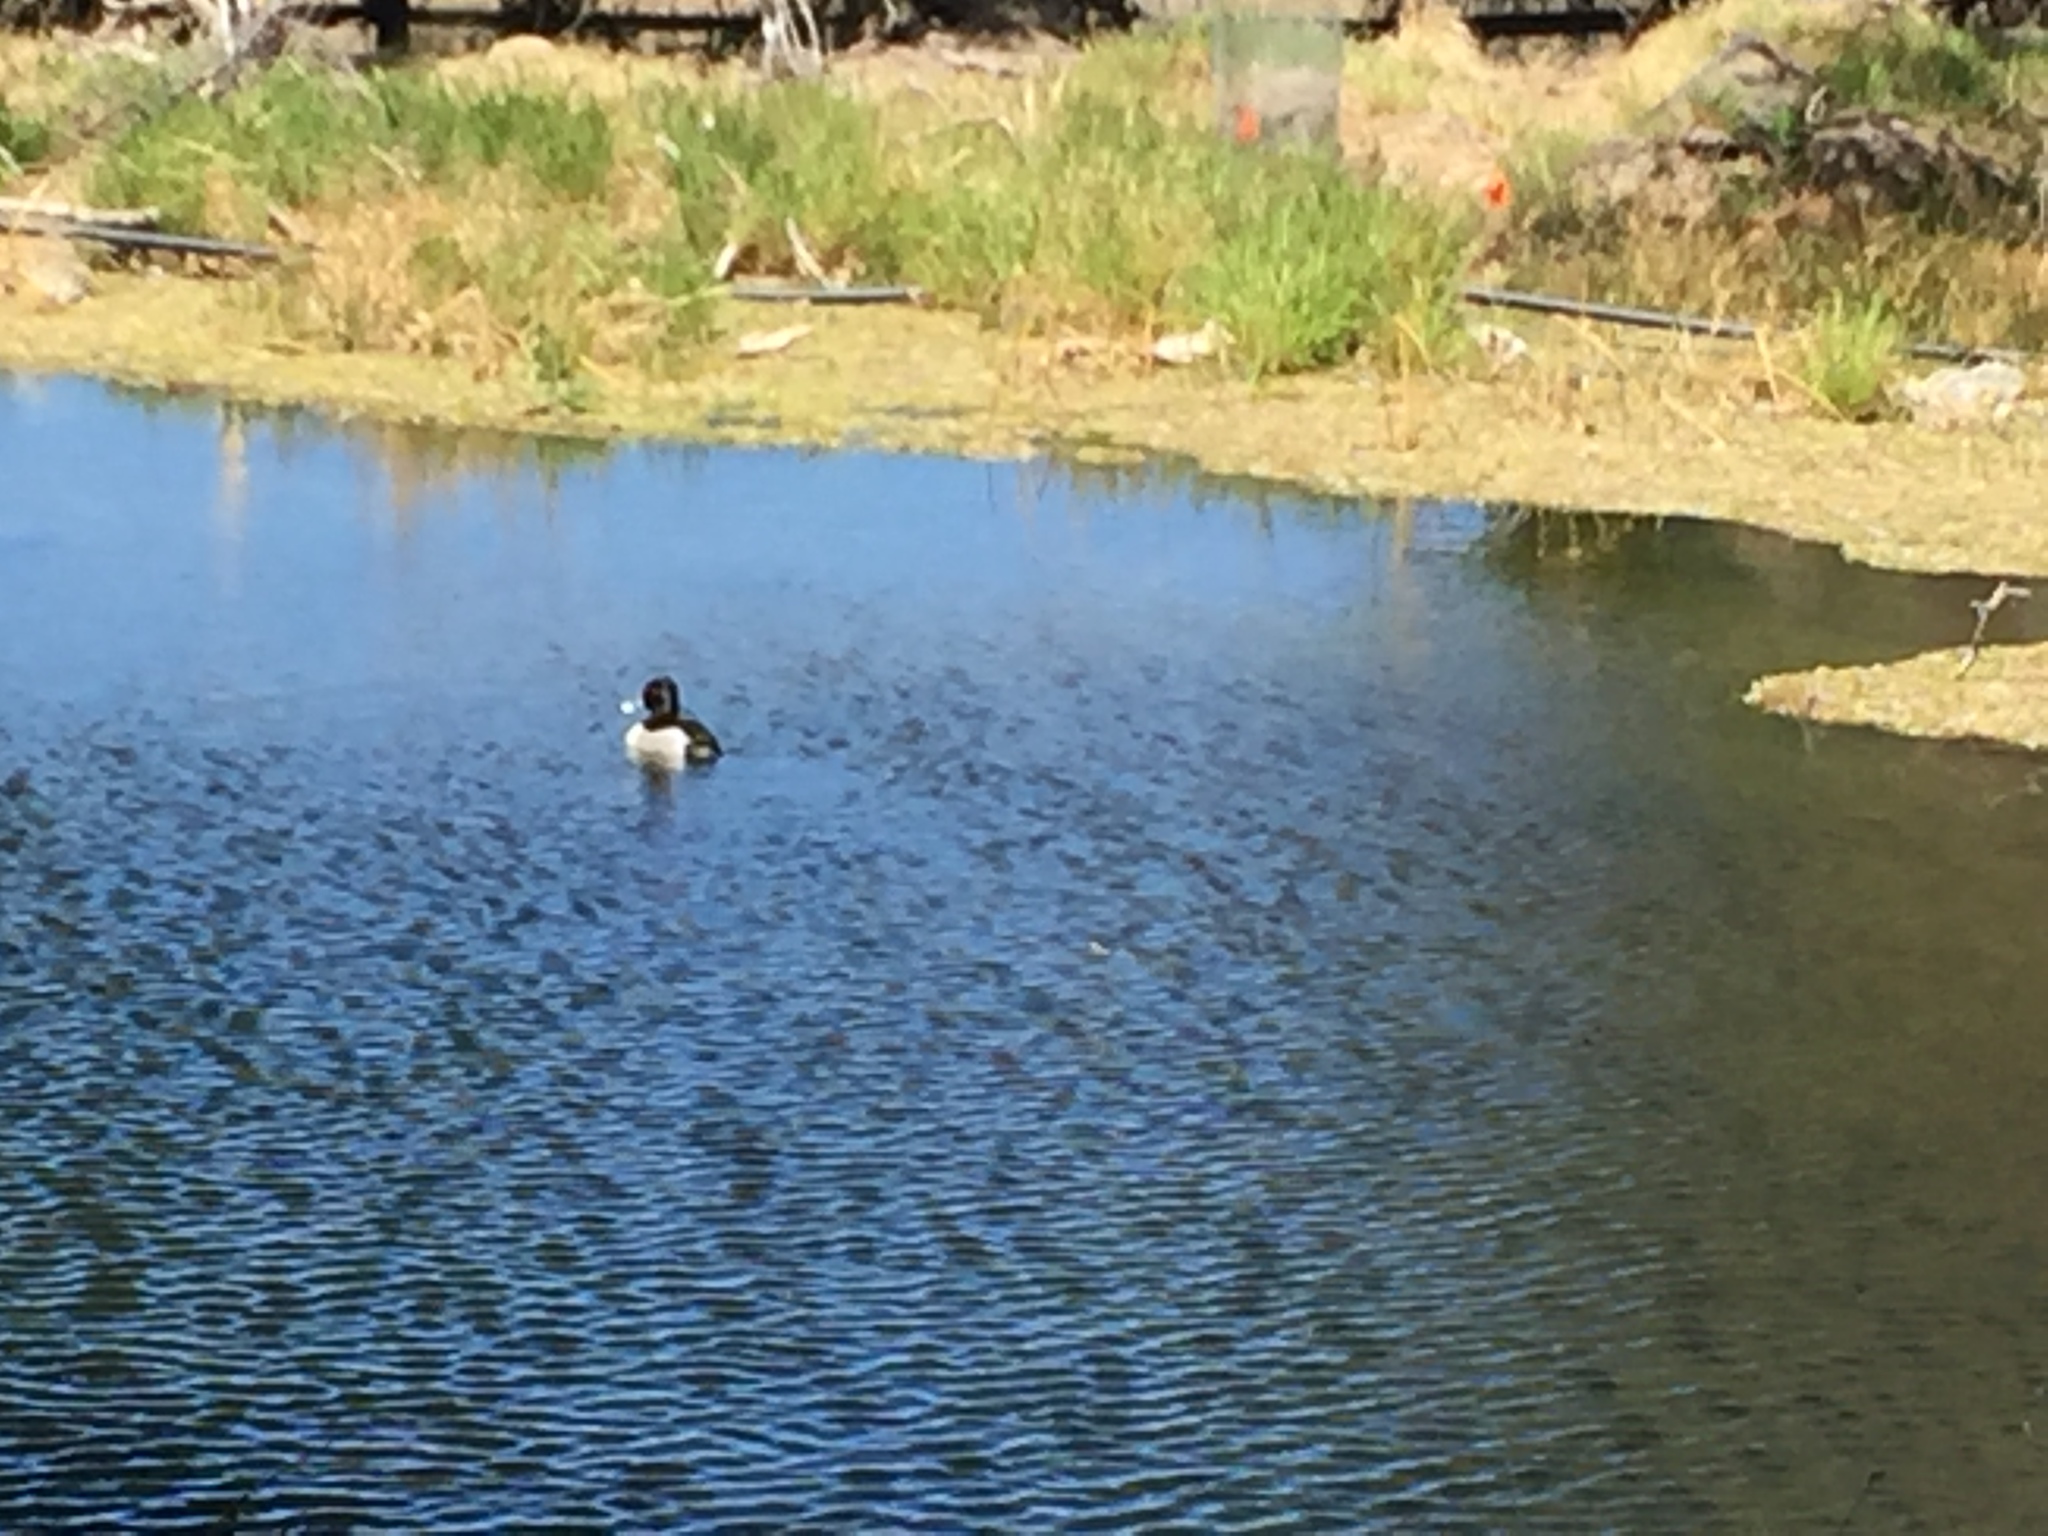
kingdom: Animalia
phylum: Chordata
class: Aves
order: Anseriformes
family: Anatidae
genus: Aythya
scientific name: Aythya collaris
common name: Ring-necked duck
